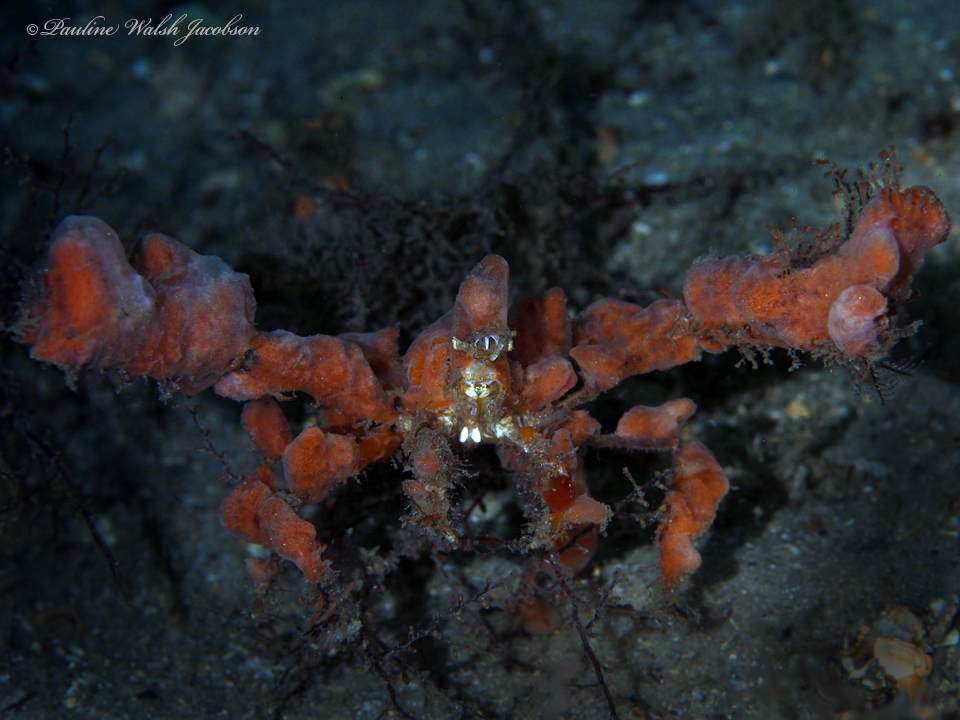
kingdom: Animalia
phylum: Arthropoda
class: Malacostraca
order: Decapoda
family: Inachidae
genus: Podochela
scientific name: Podochela
